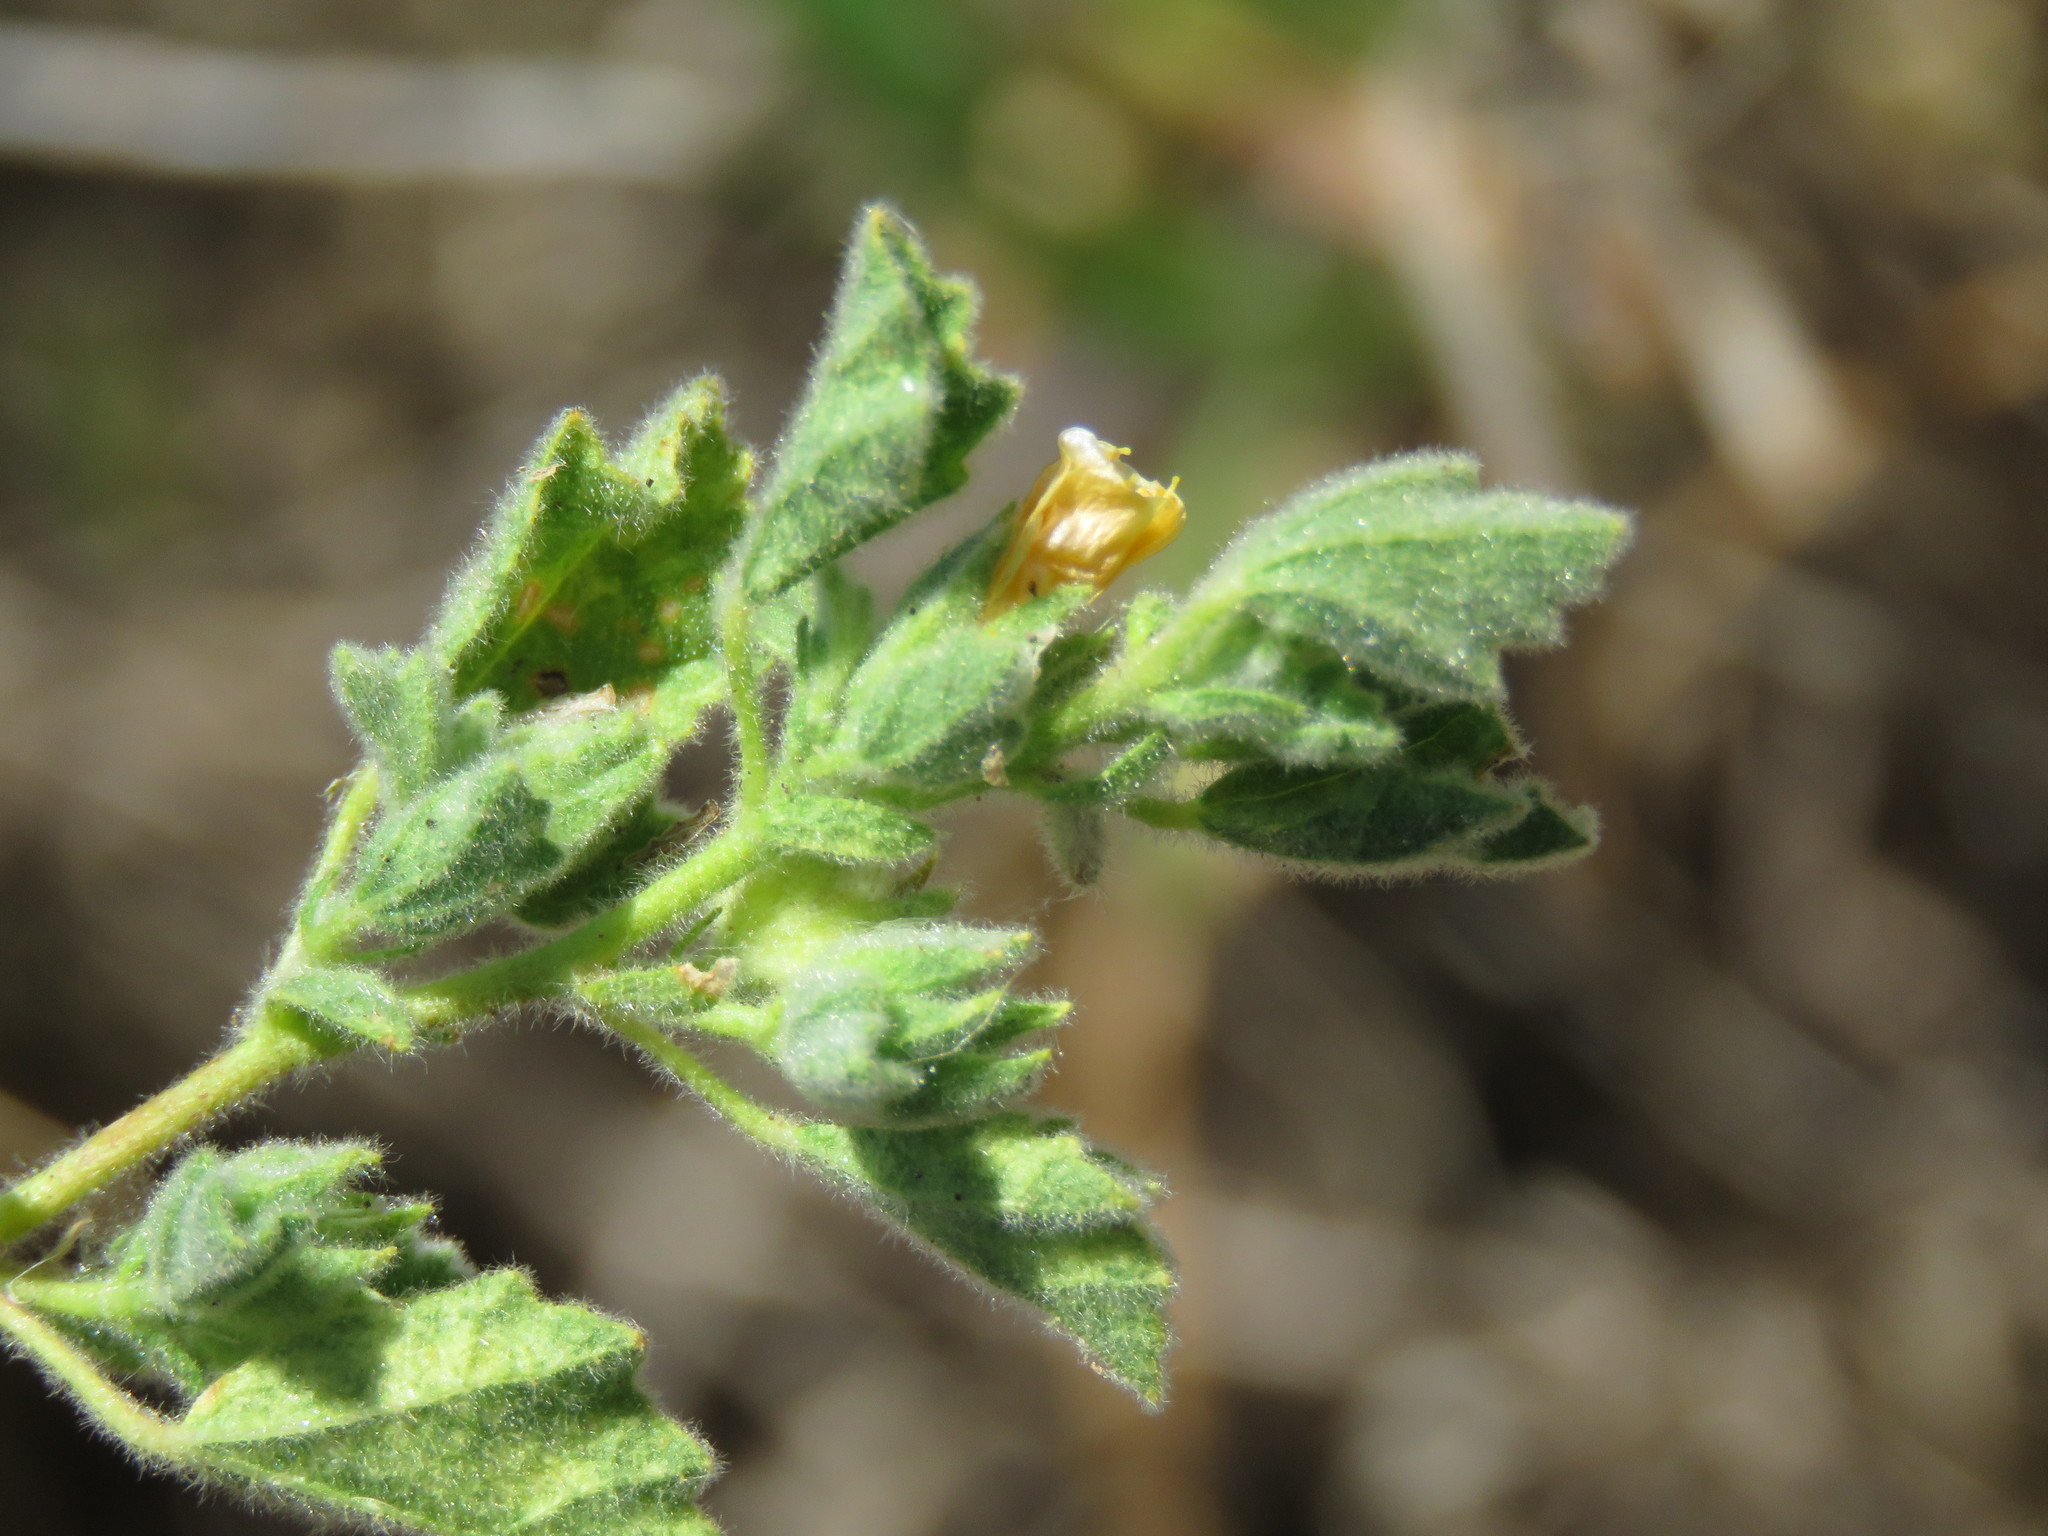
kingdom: Plantae
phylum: Tracheophyta
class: Magnoliopsida
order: Malvales
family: Malvaceae
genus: Billieturnera
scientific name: Billieturnera helleri
